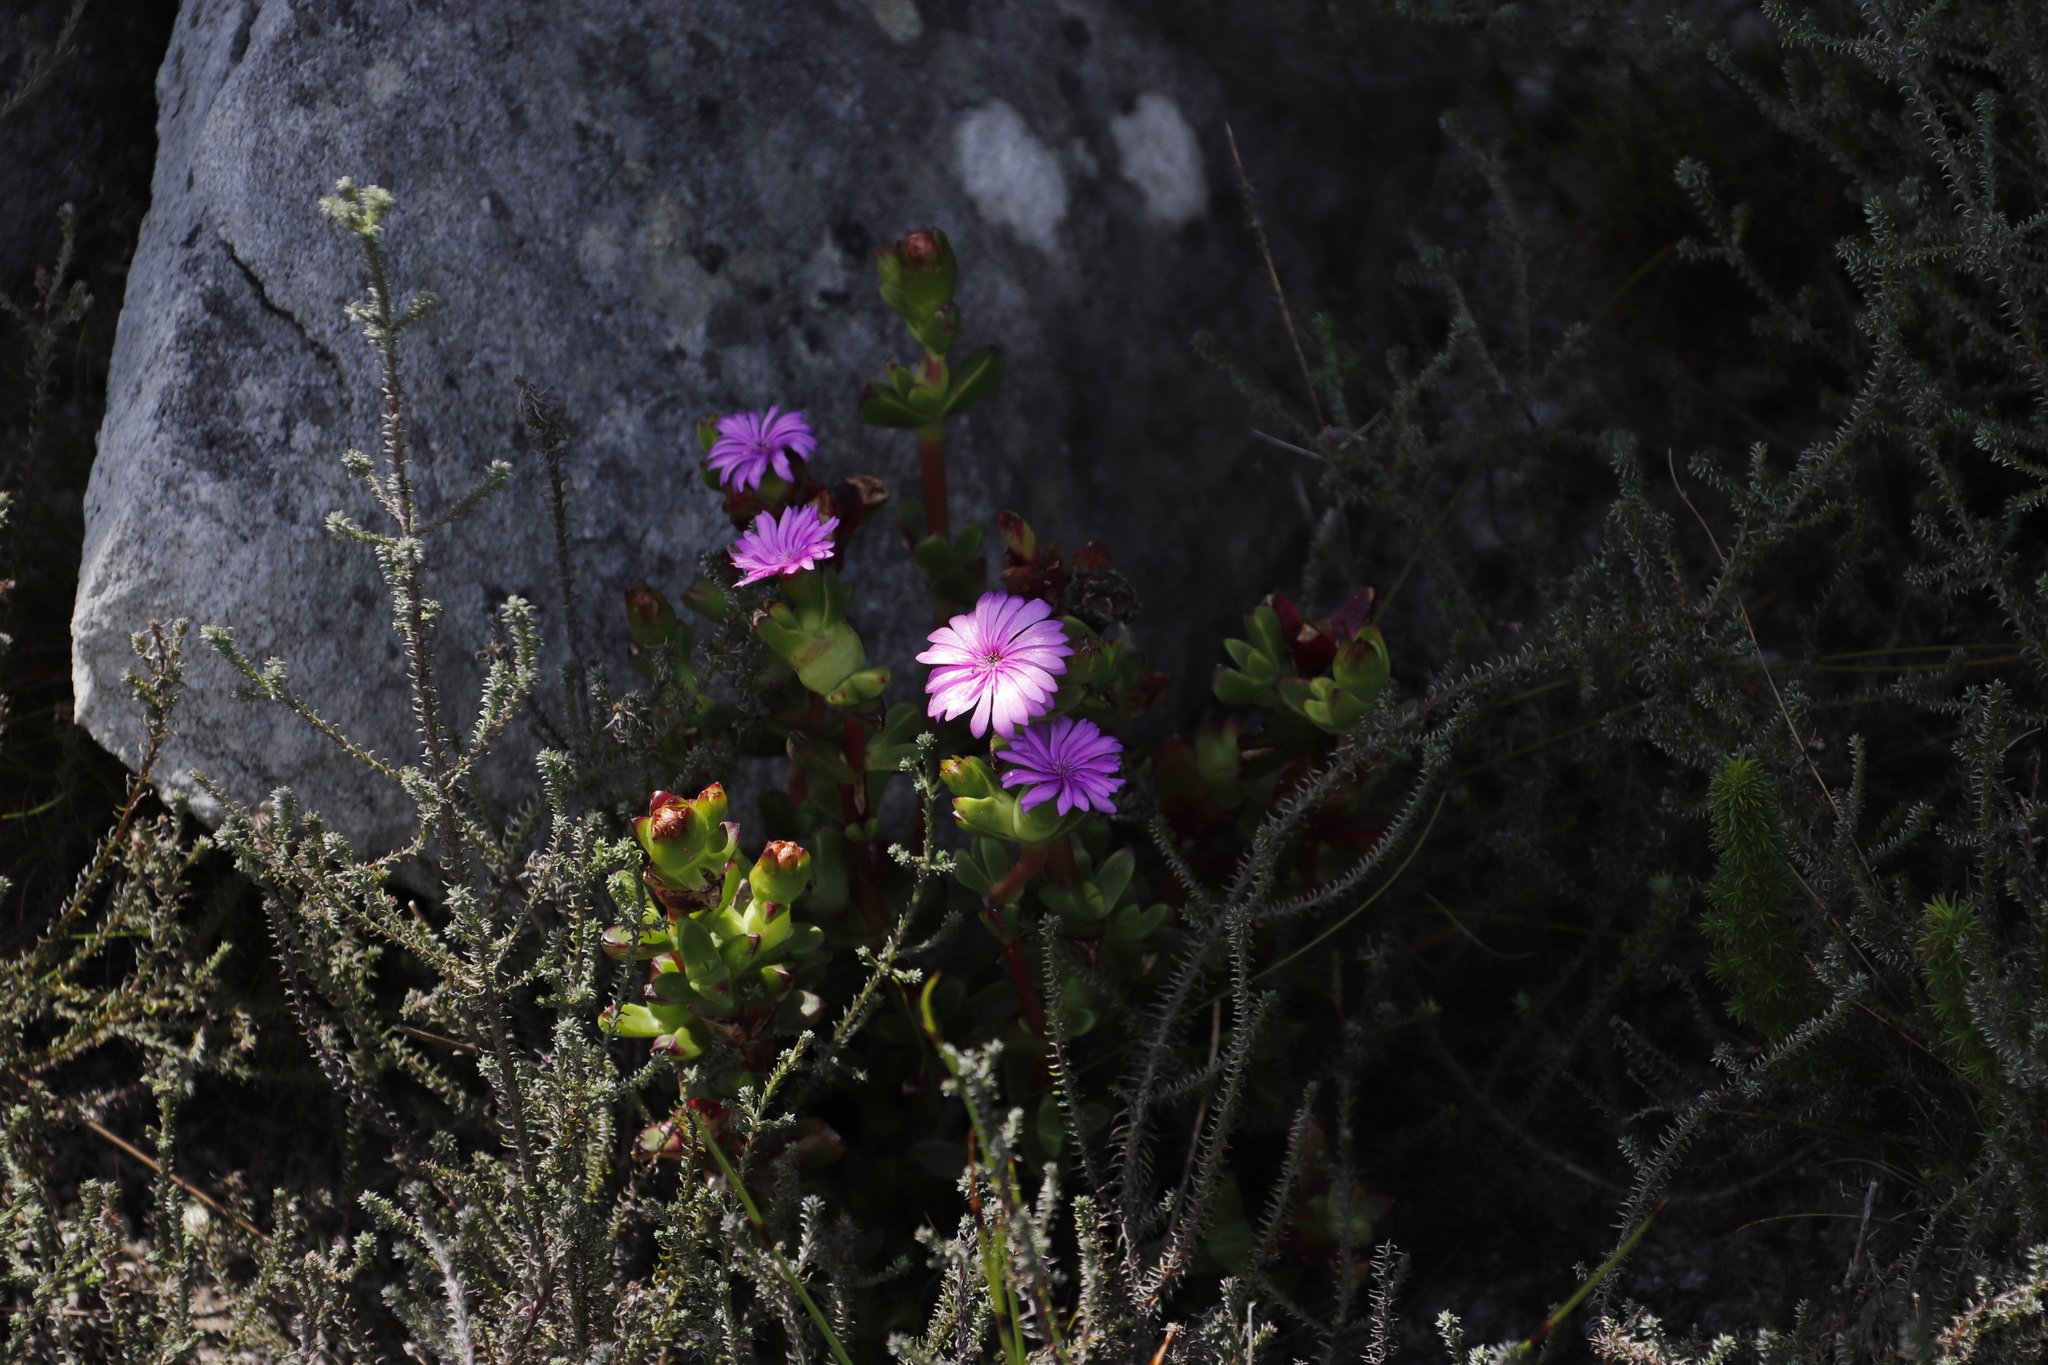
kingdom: Plantae
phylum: Tracheophyta
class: Magnoliopsida
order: Caryophyllales
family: Aizoaceae
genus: Erepsia
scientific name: Erepsia inclaudens
